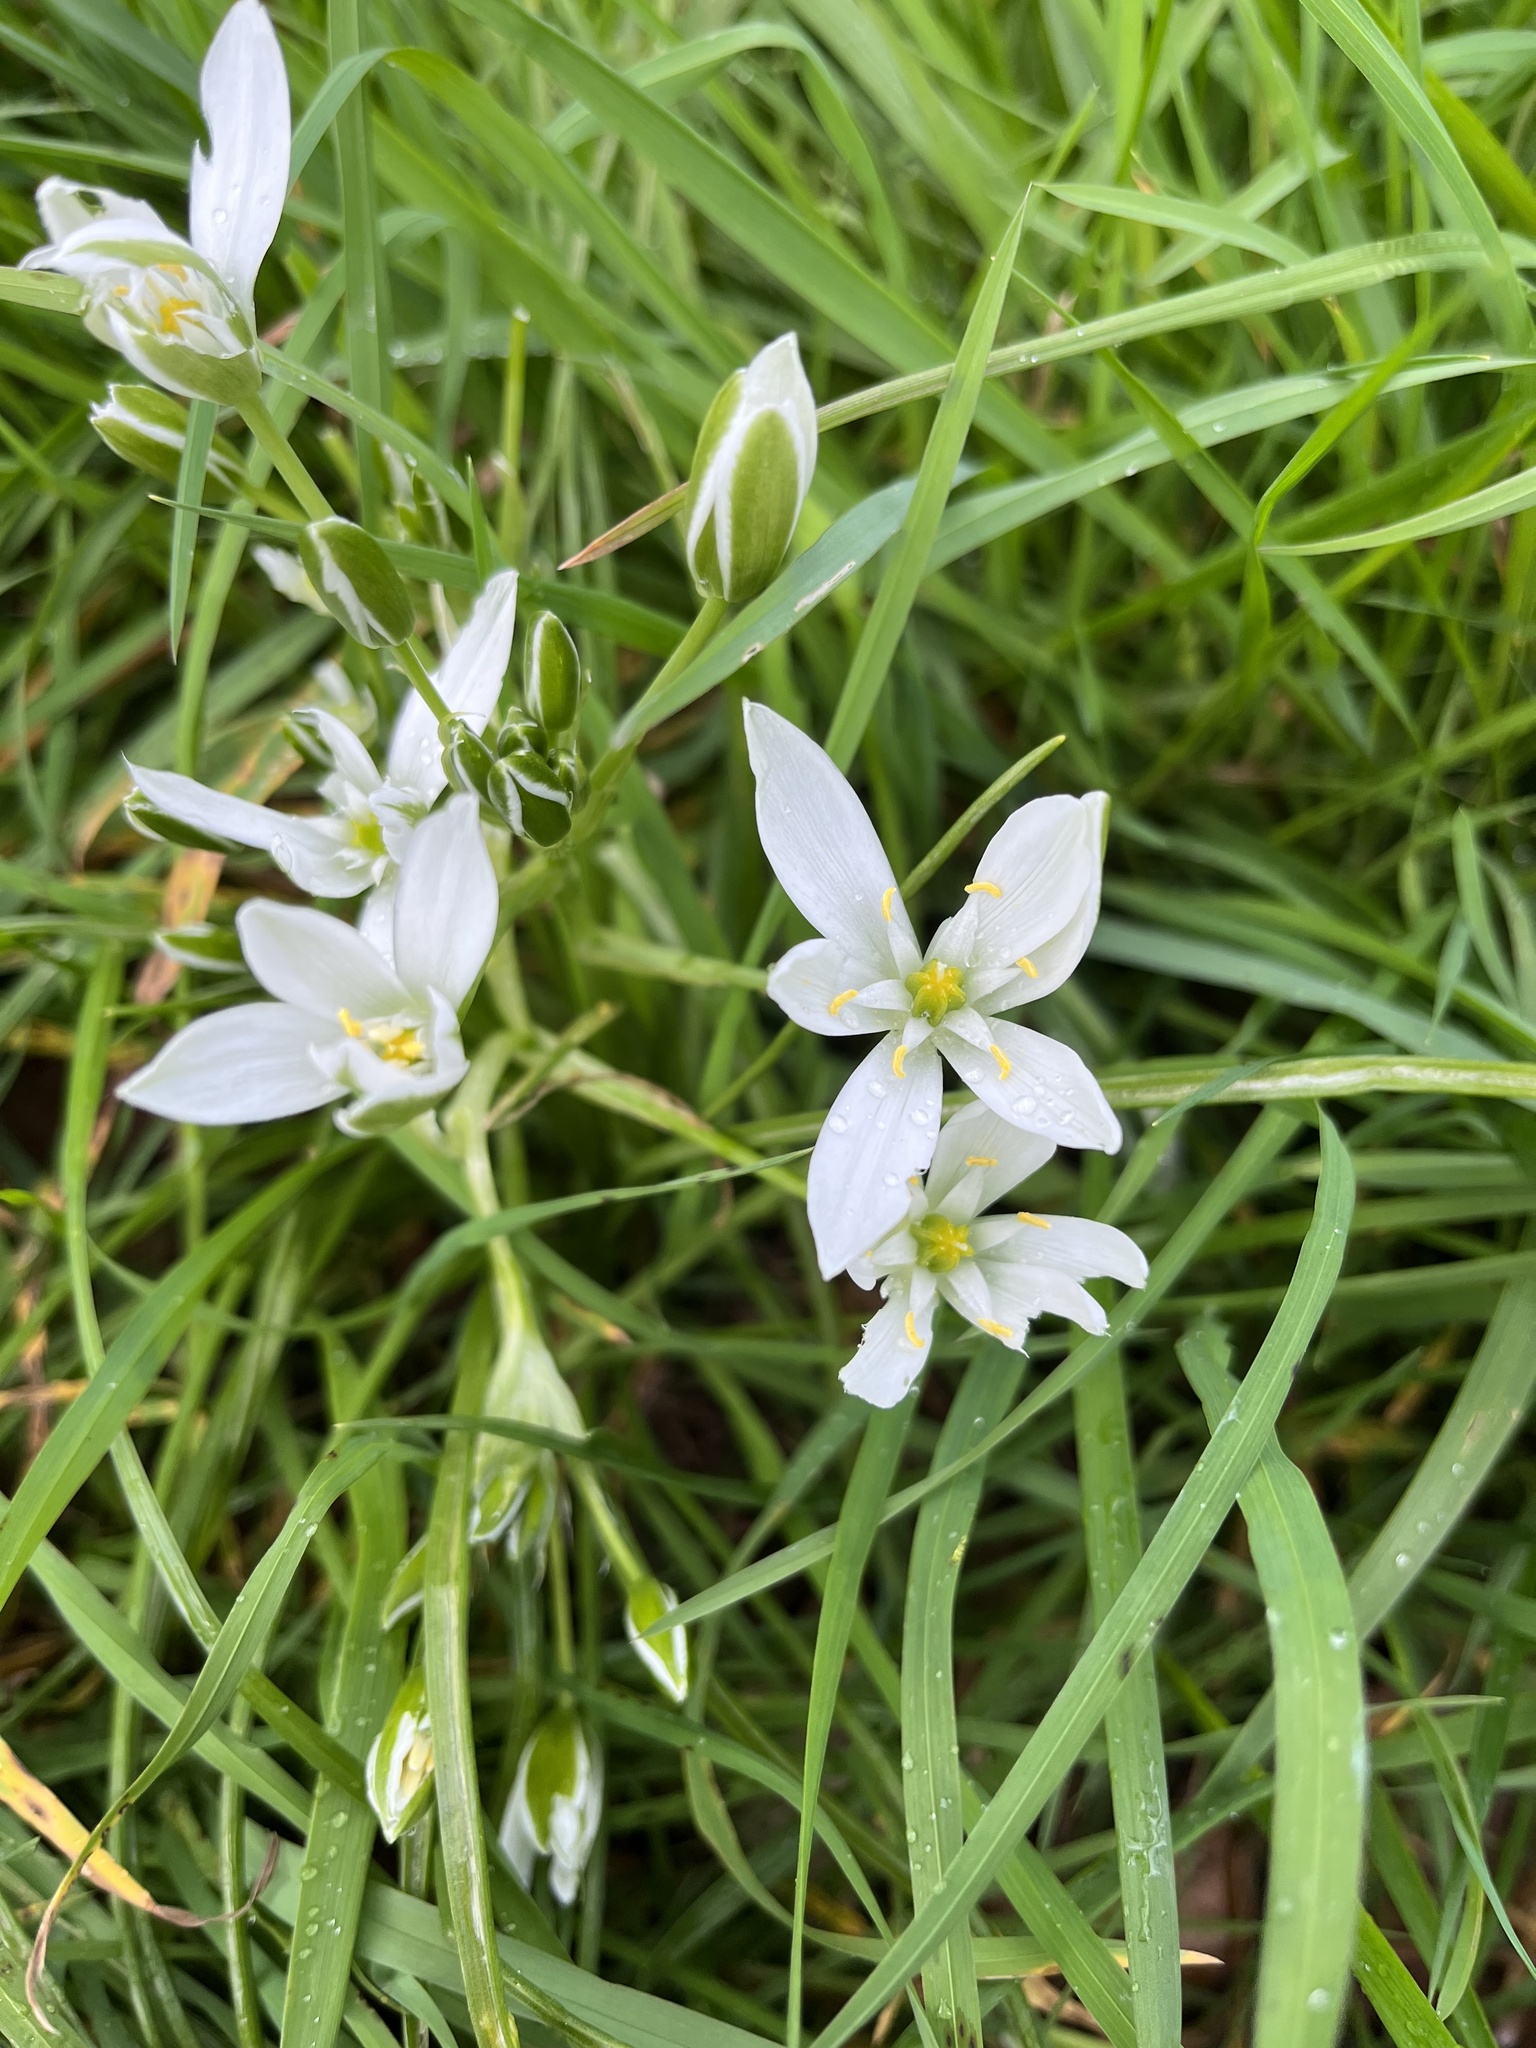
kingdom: Plantae
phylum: Tracheophyta
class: Liliopsida
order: Asparagales
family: Asparagaceae
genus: Ornithogalum
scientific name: Ornithogalum umbellatum
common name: Garden star-of-bethlehem
